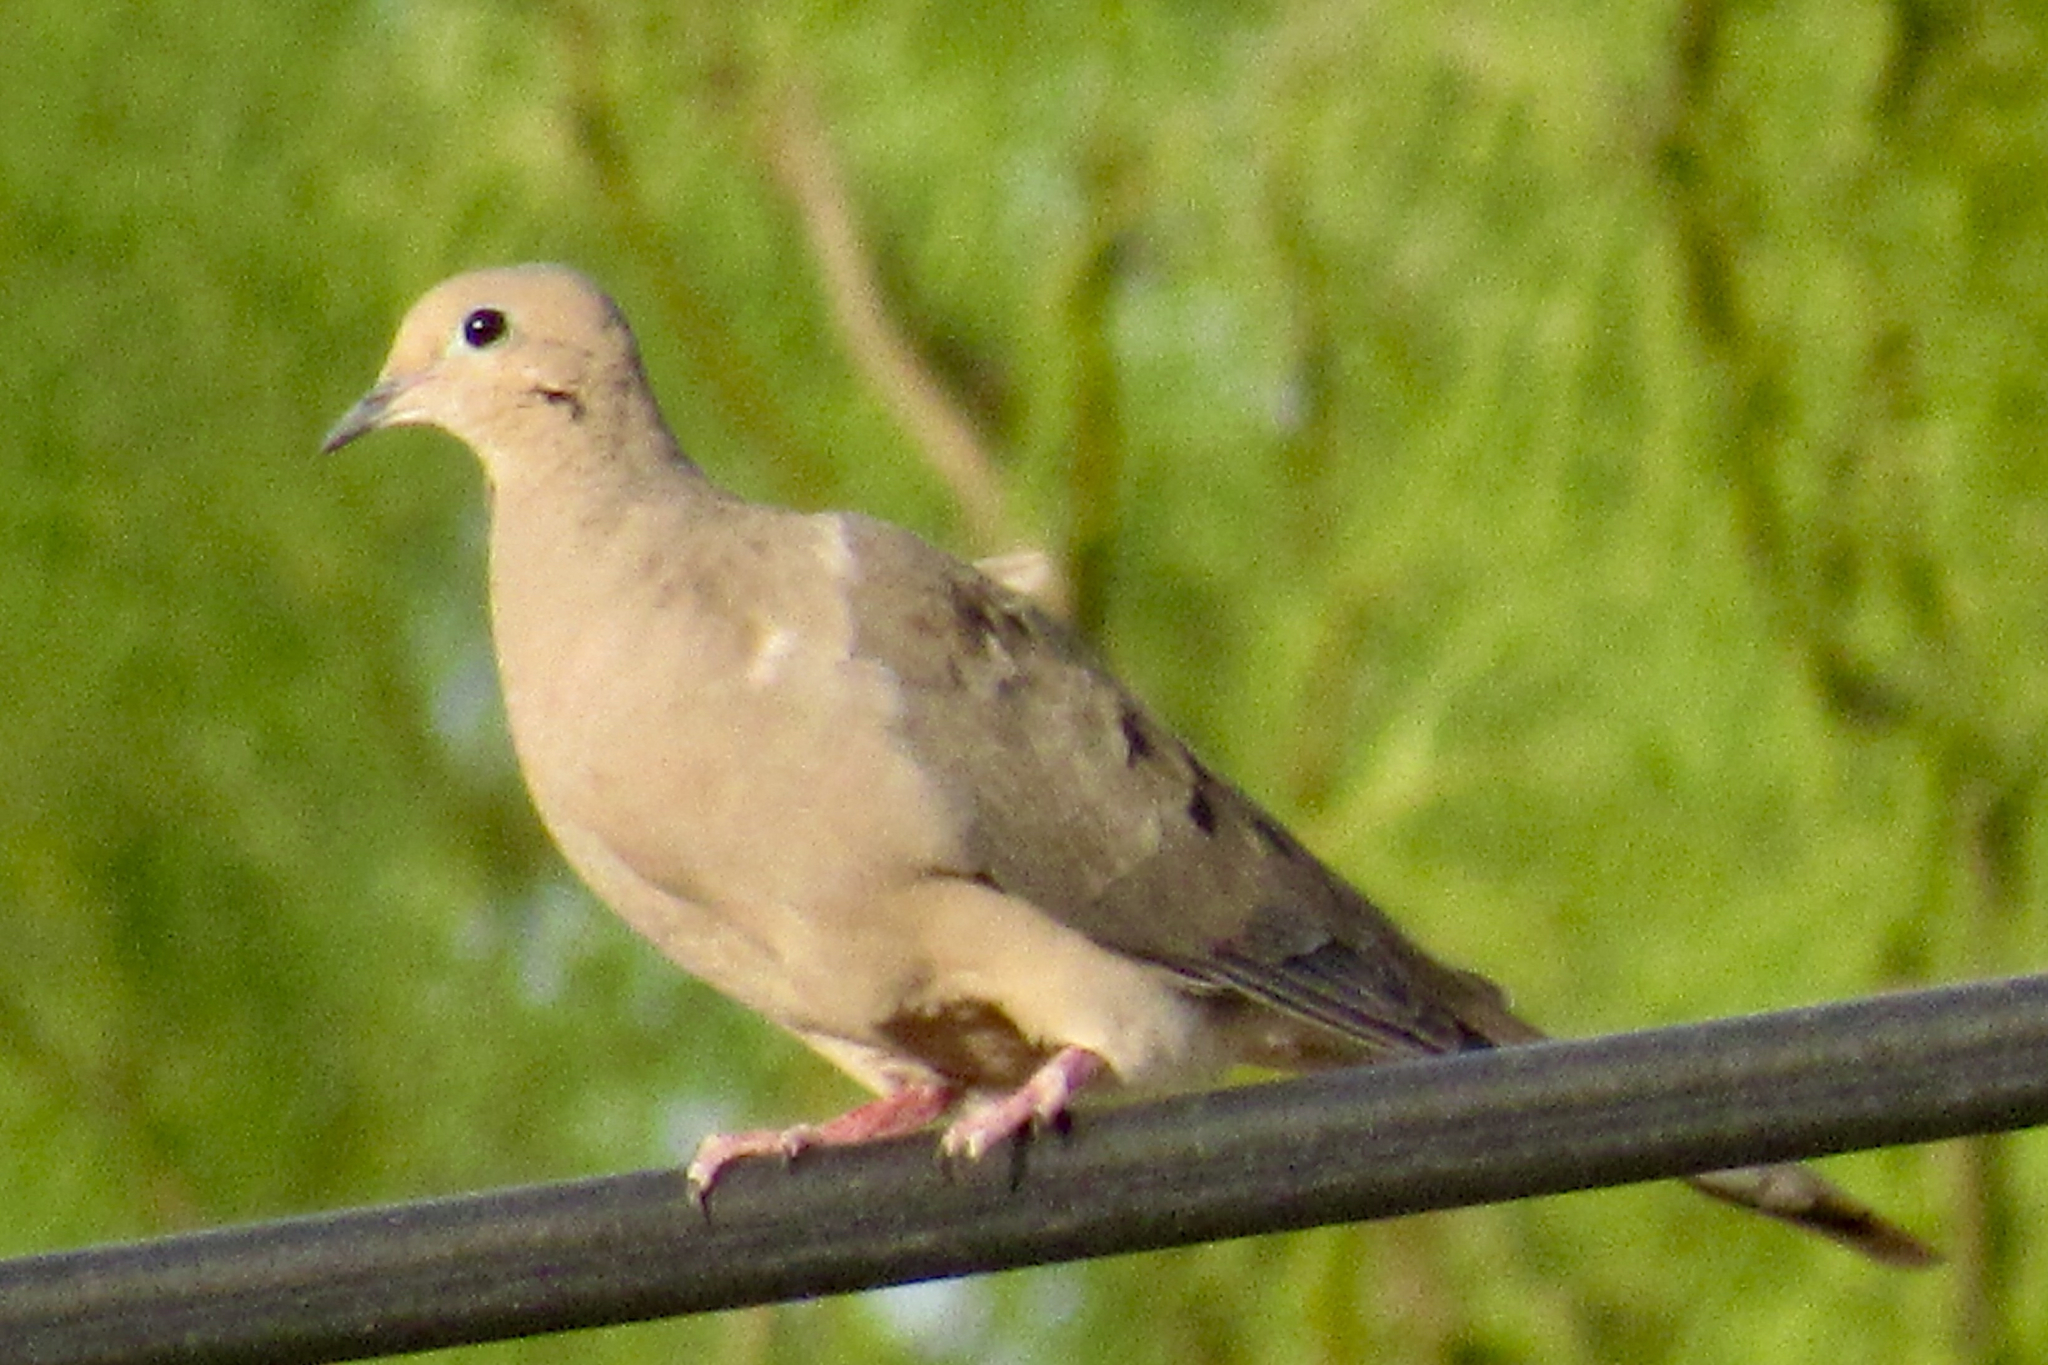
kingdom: Animalia
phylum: Chordata
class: Aves
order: Columbiformes
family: Columbidae
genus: Zenaida
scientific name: Zenaida macroura
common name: Mourning dove
